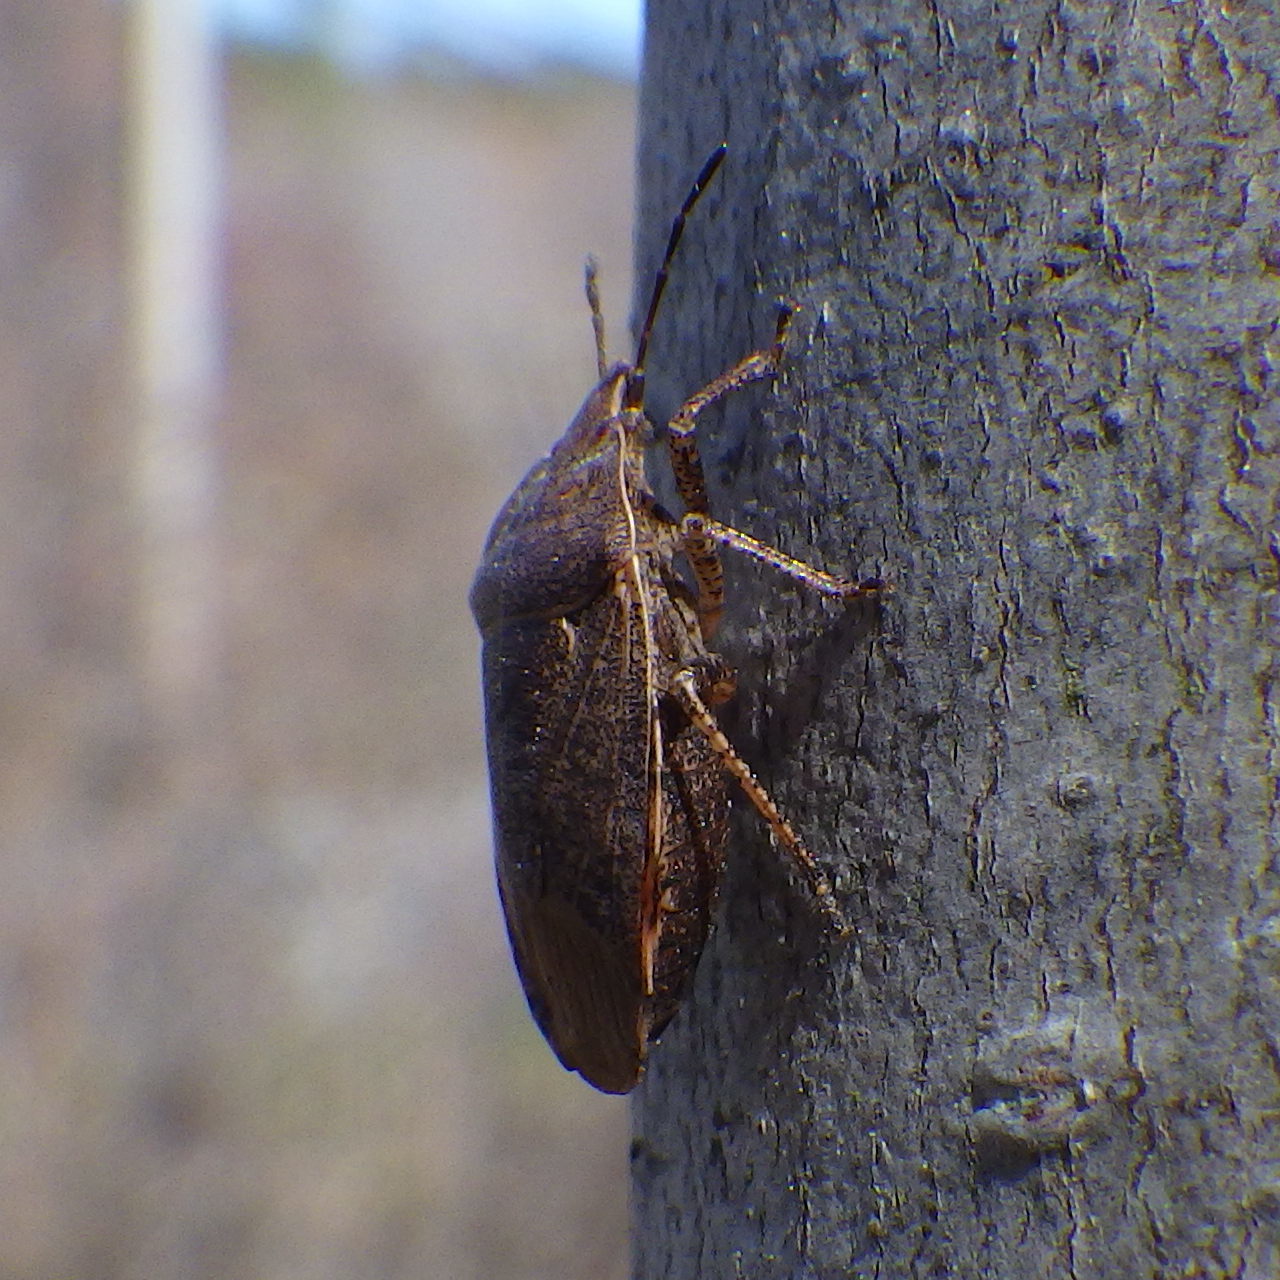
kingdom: Animalia
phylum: Arthropoda
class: Insecta
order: Hemiptera
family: Pentatomidae
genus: Menecles
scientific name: Menecles insertus
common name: Elf shoe stink bug
